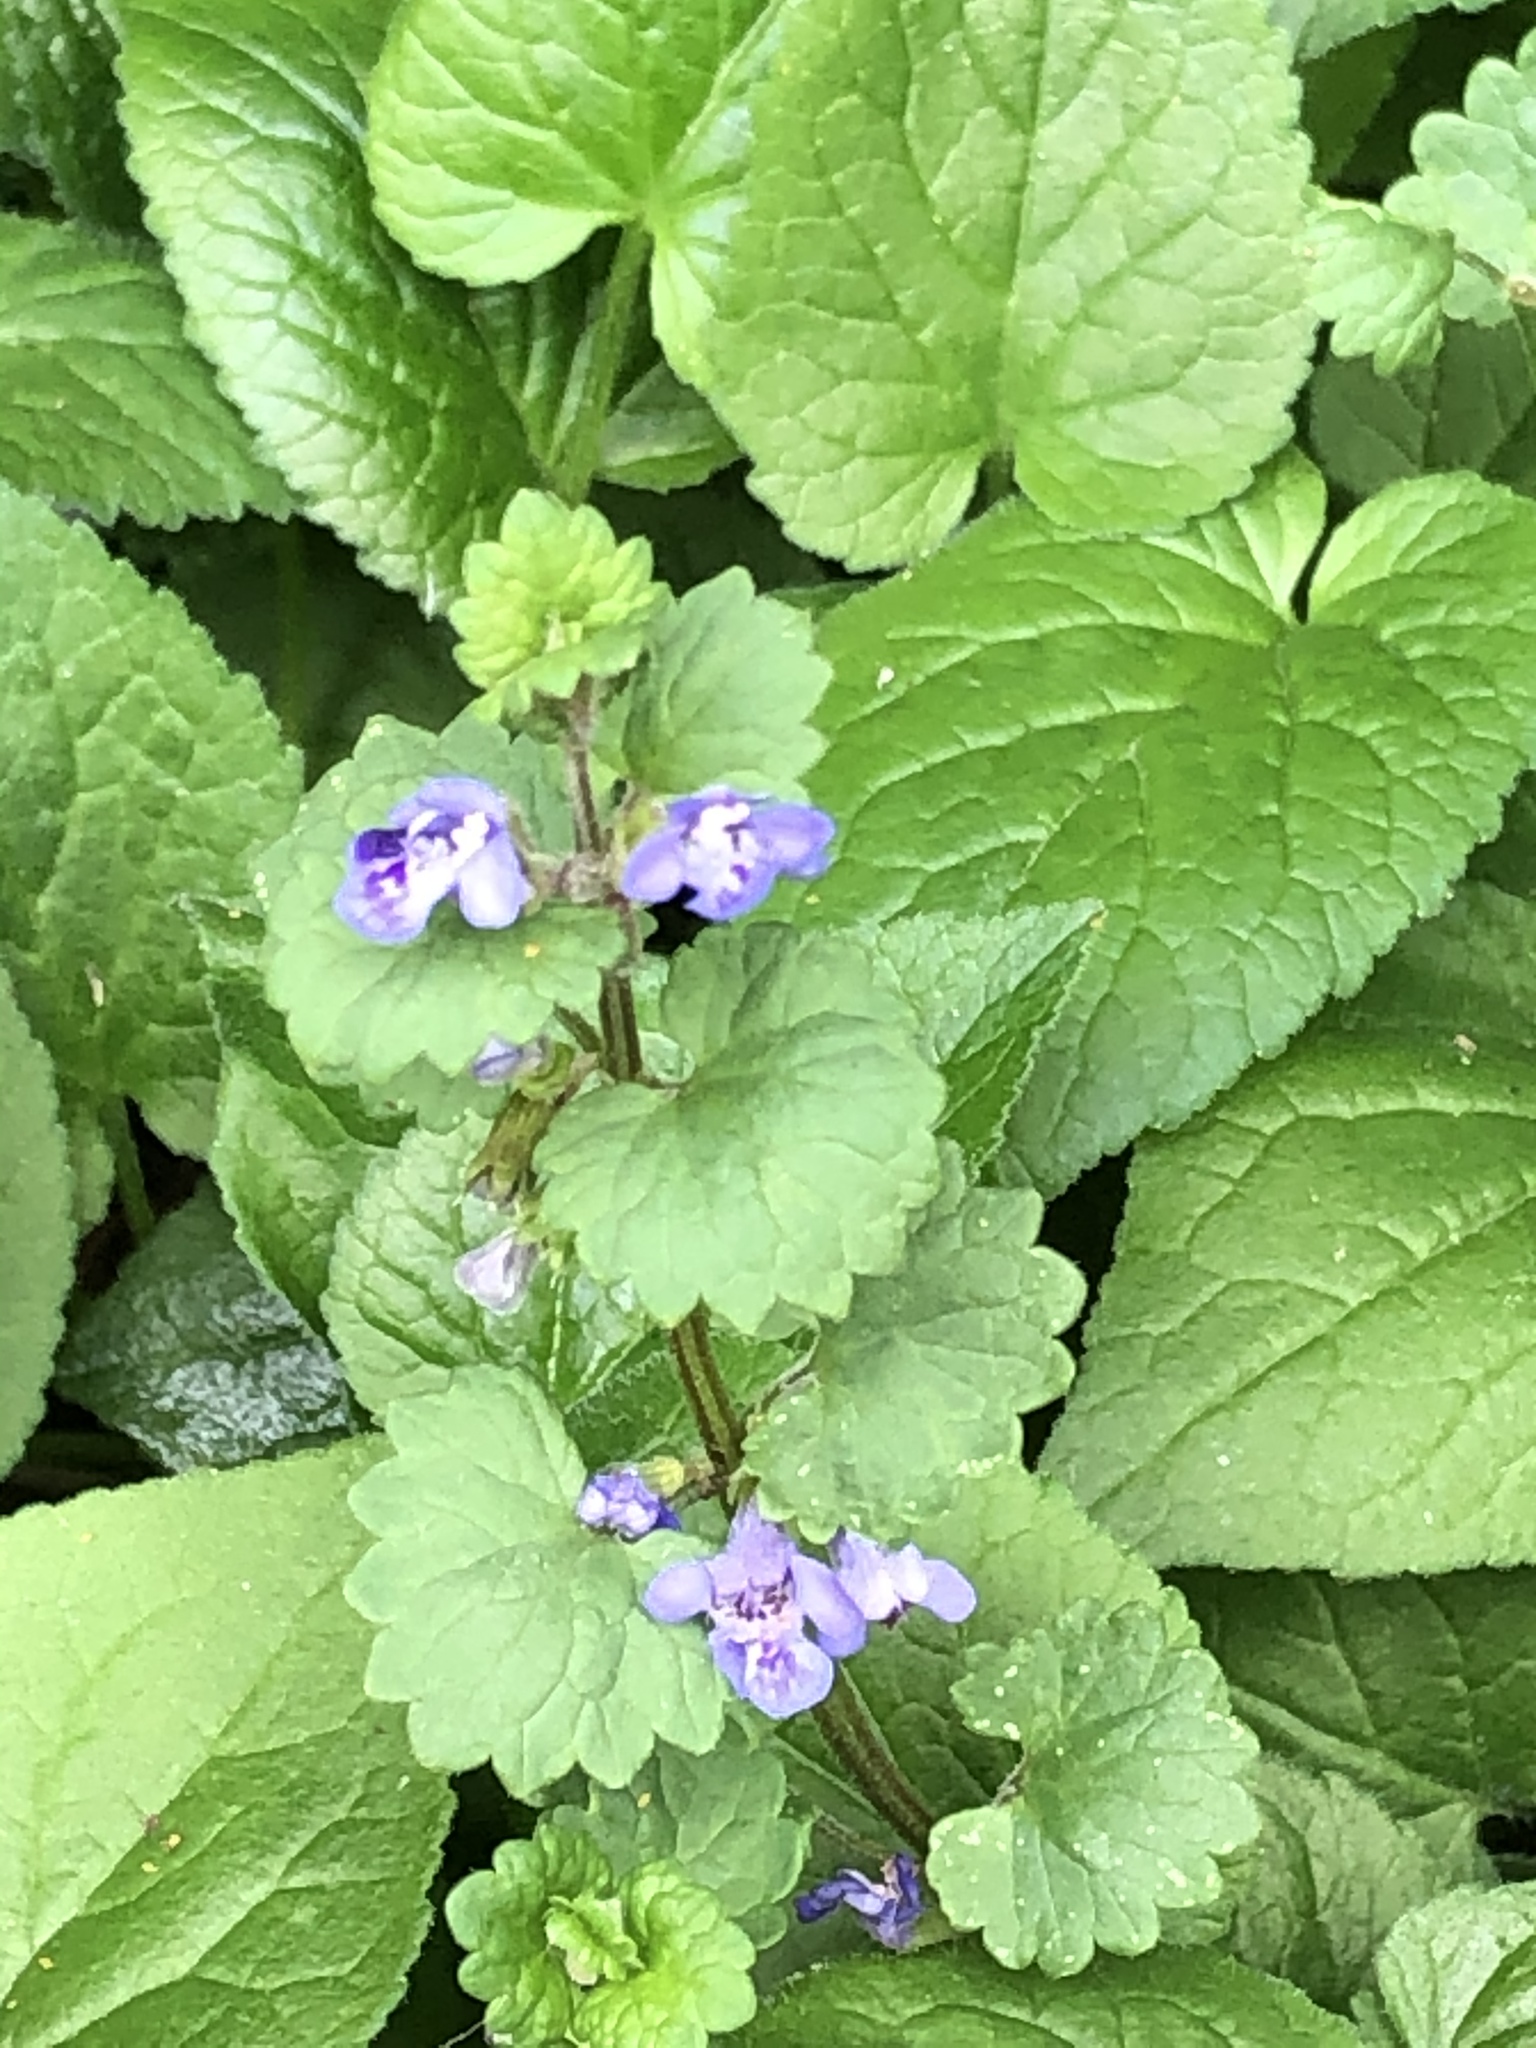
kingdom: Plantae
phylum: Tracheophyta
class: Magnoliopsida
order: Lamiales
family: Lamiaceae
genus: Glechoma
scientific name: Glechoma hederacea
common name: Ground ivy
